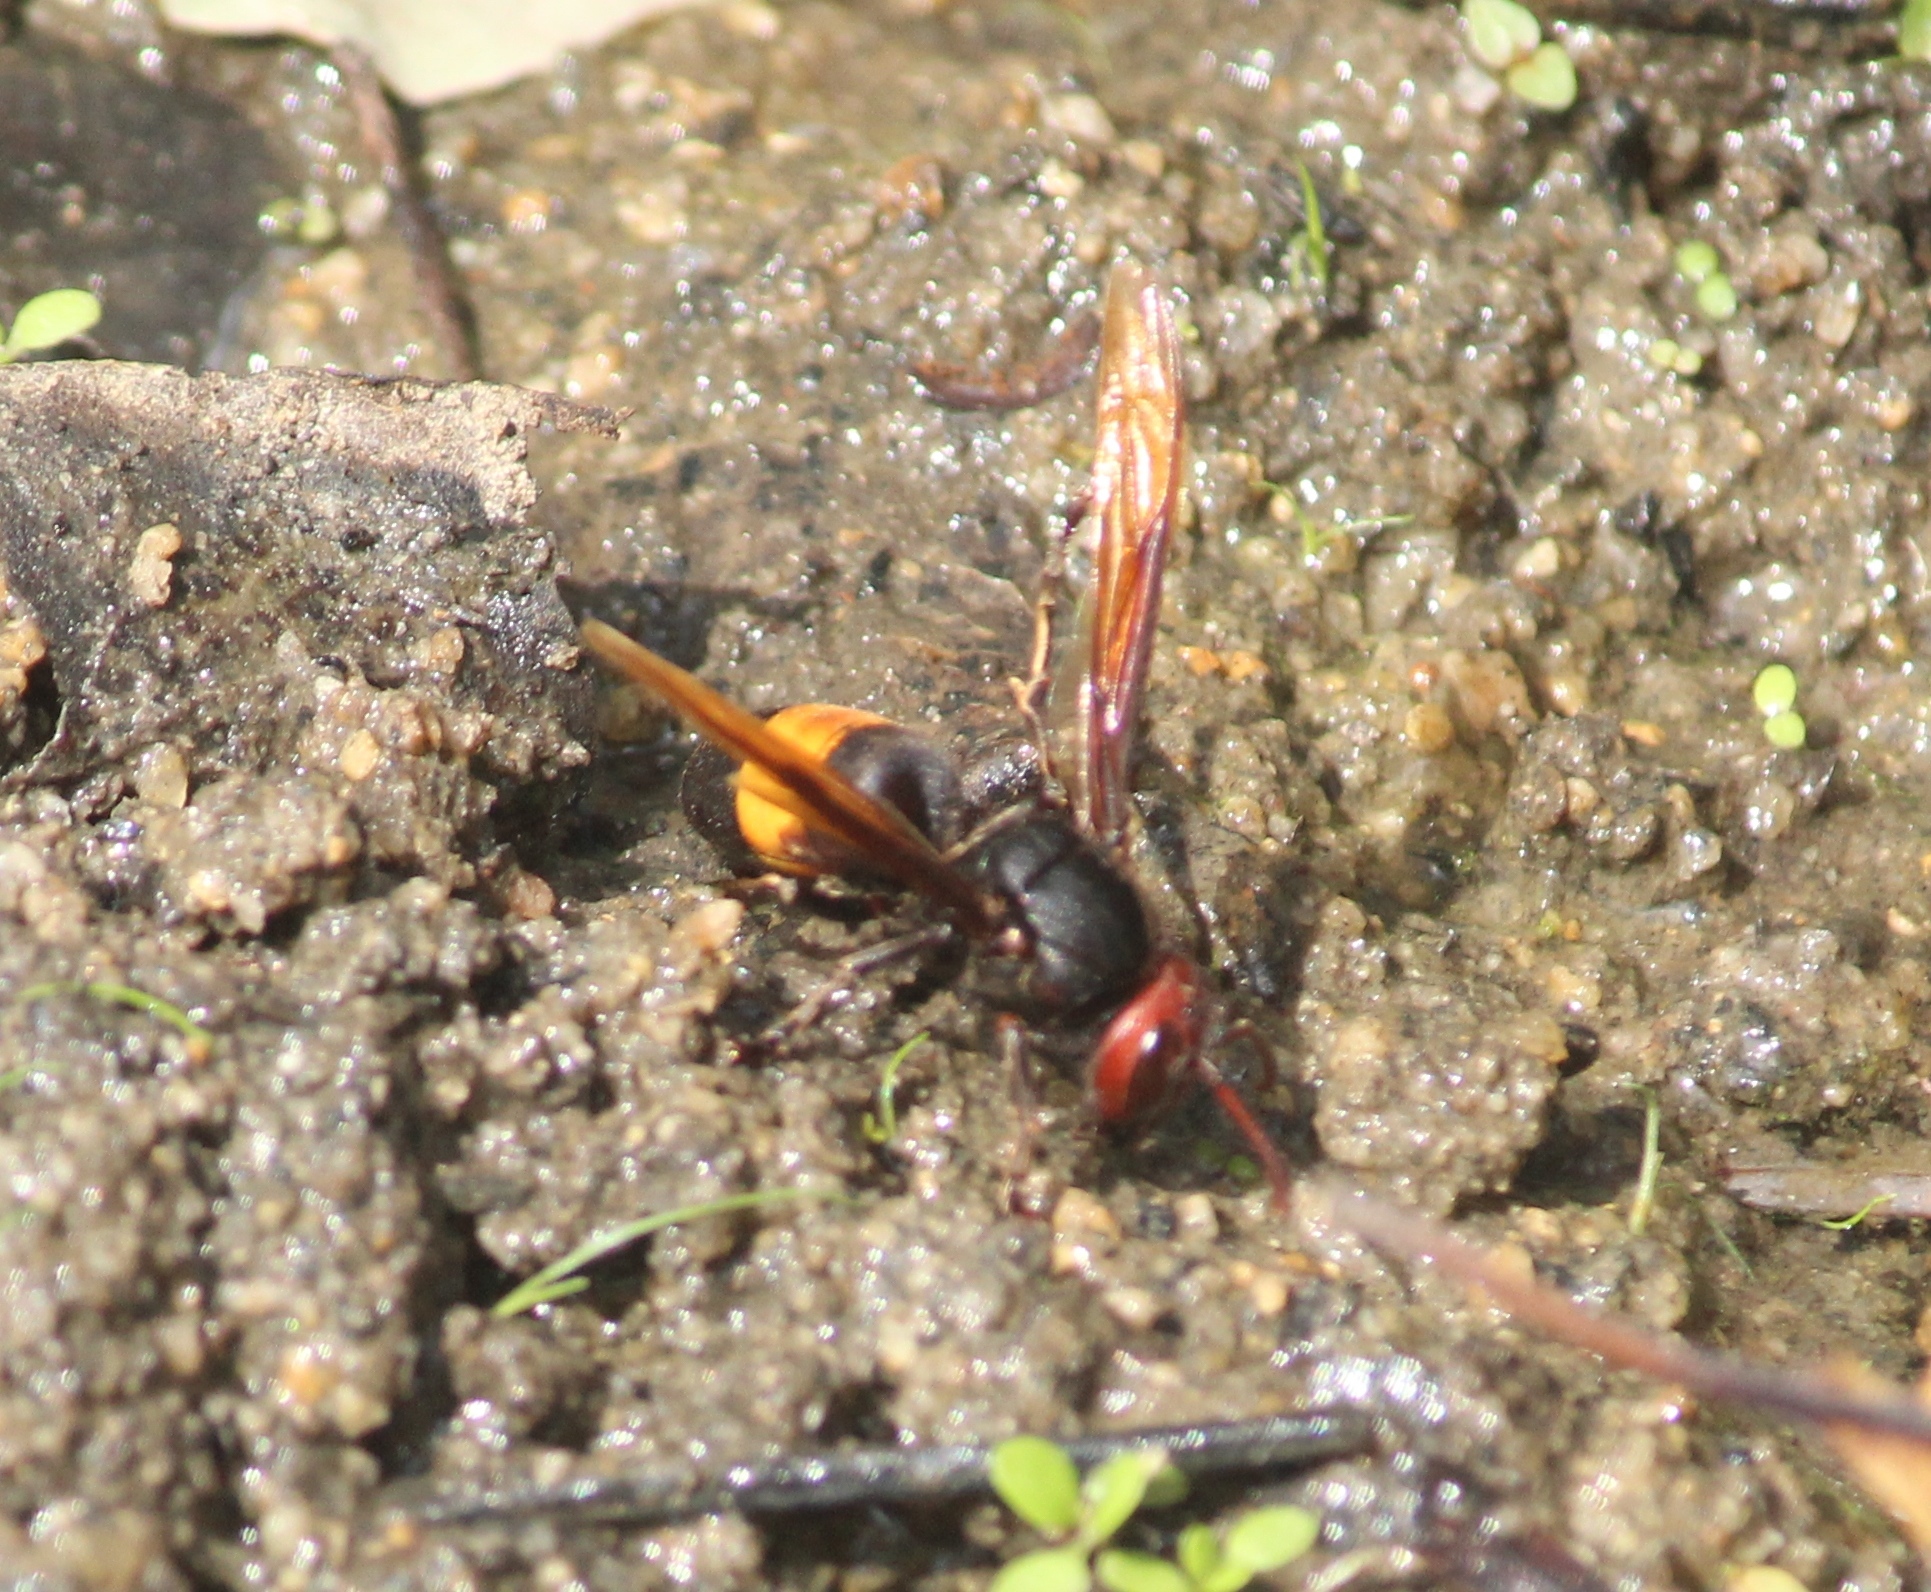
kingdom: Animalia
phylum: Arthropoda
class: Insecta
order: Hymenoptera
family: Vespidae
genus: Vespa
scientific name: Vespa tropica
